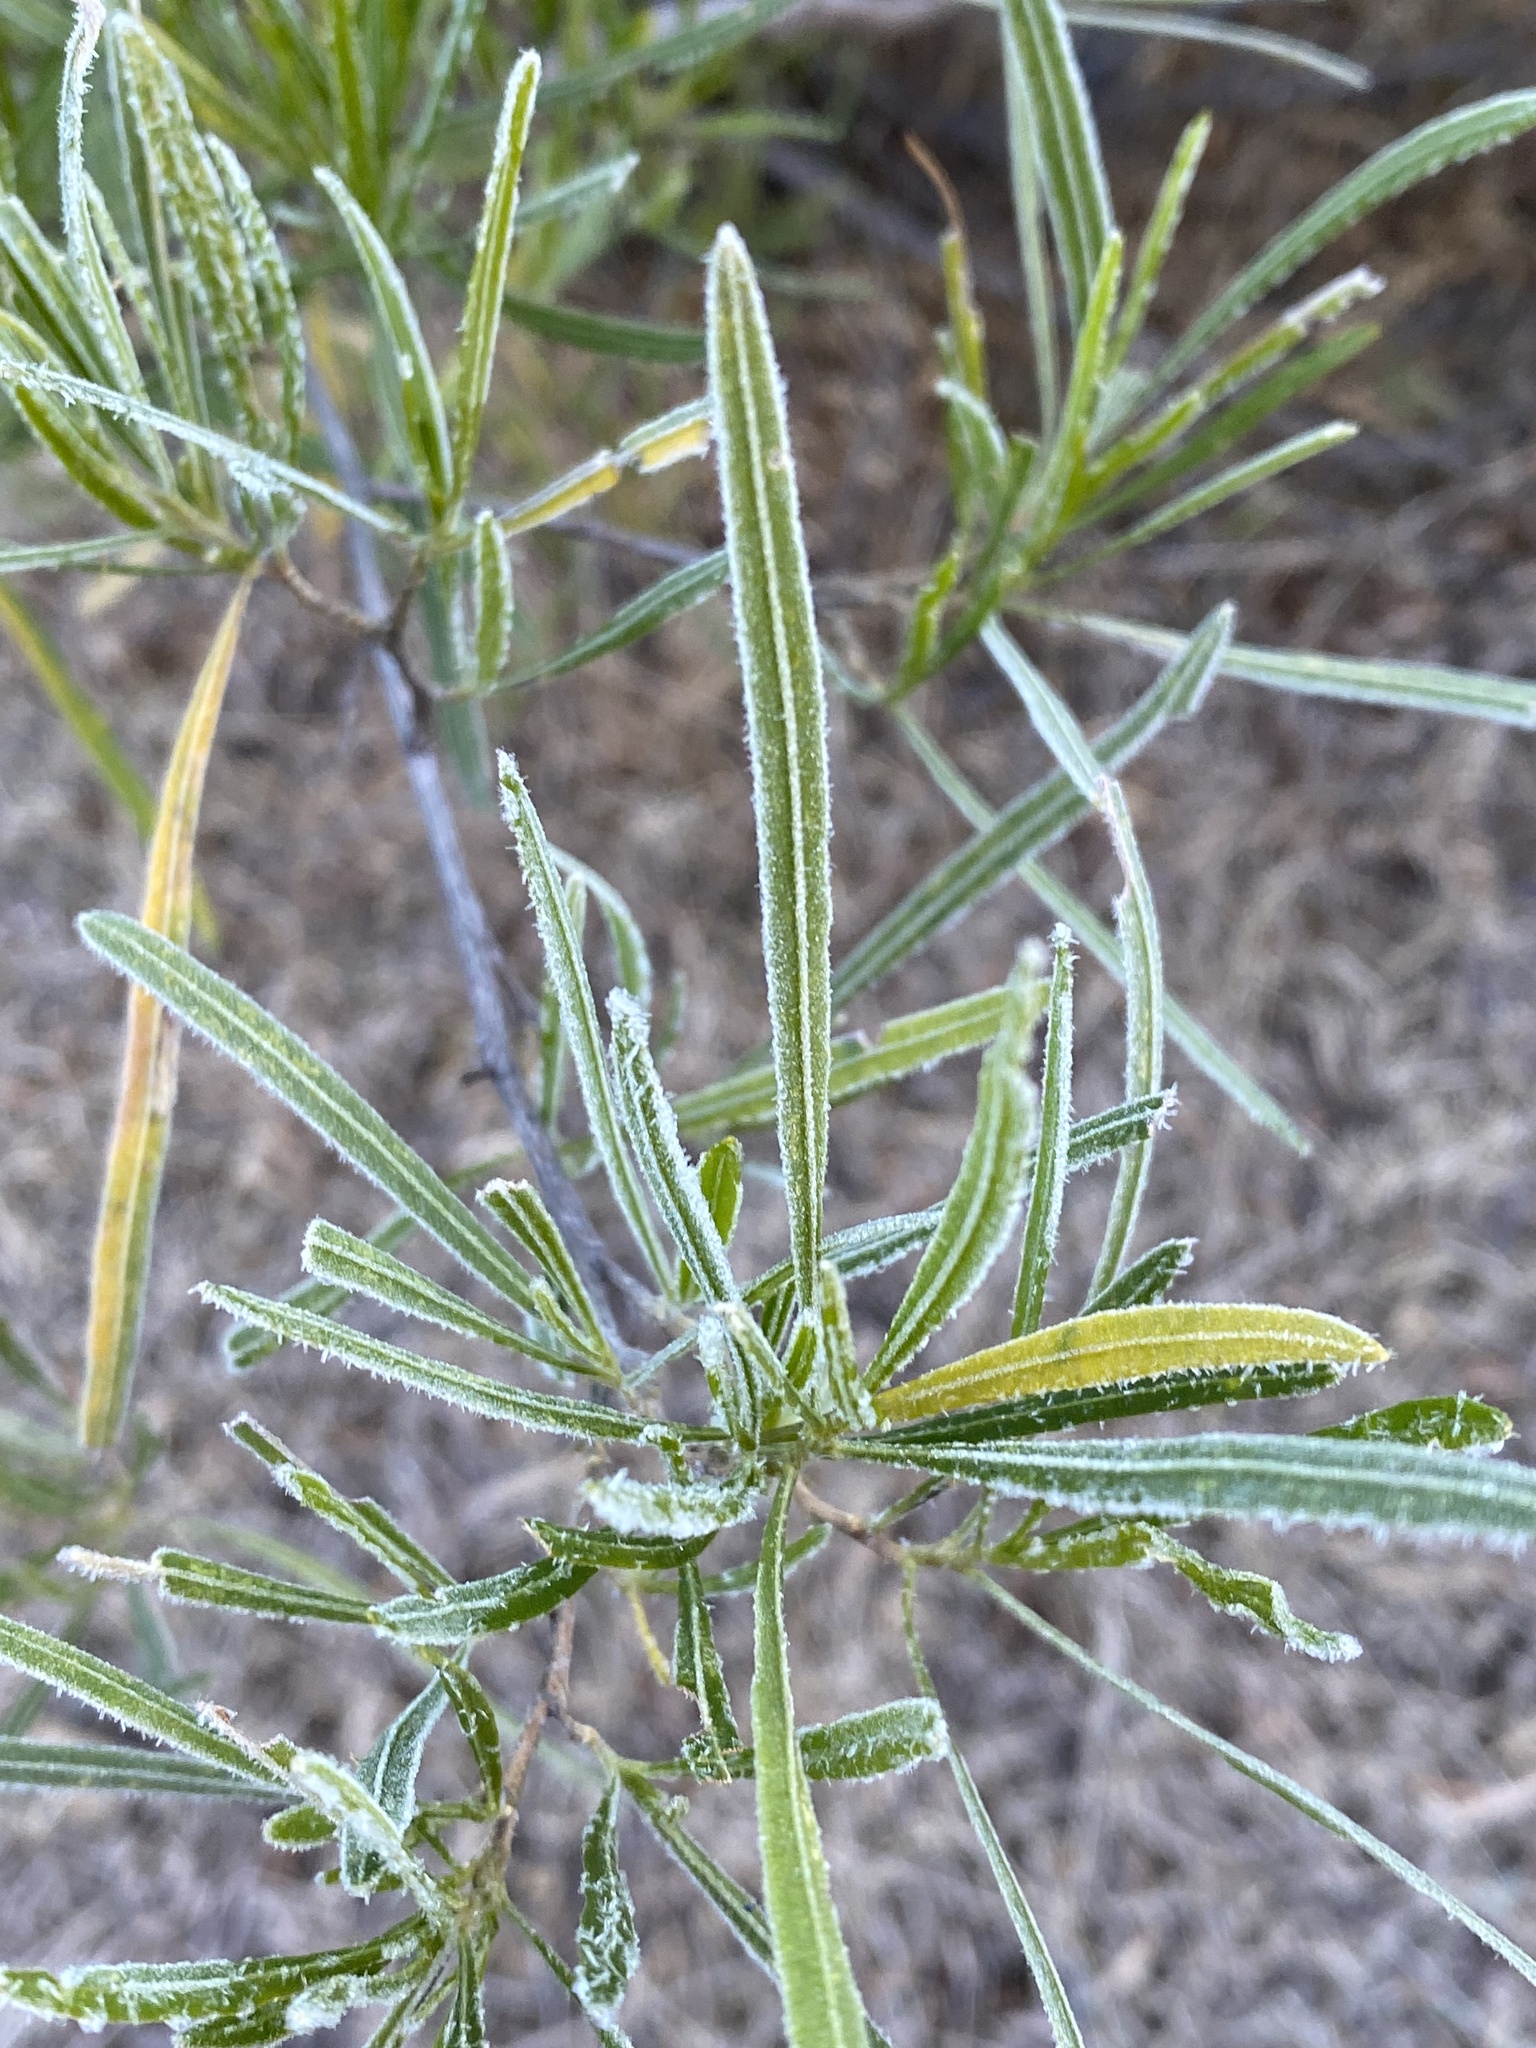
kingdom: Plantae
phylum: Tracheophyta
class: Magnoliopsida
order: Sapindales
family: Sapindaceae
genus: Dodonaea
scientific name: Dodonaea viscosa
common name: Hopbush
